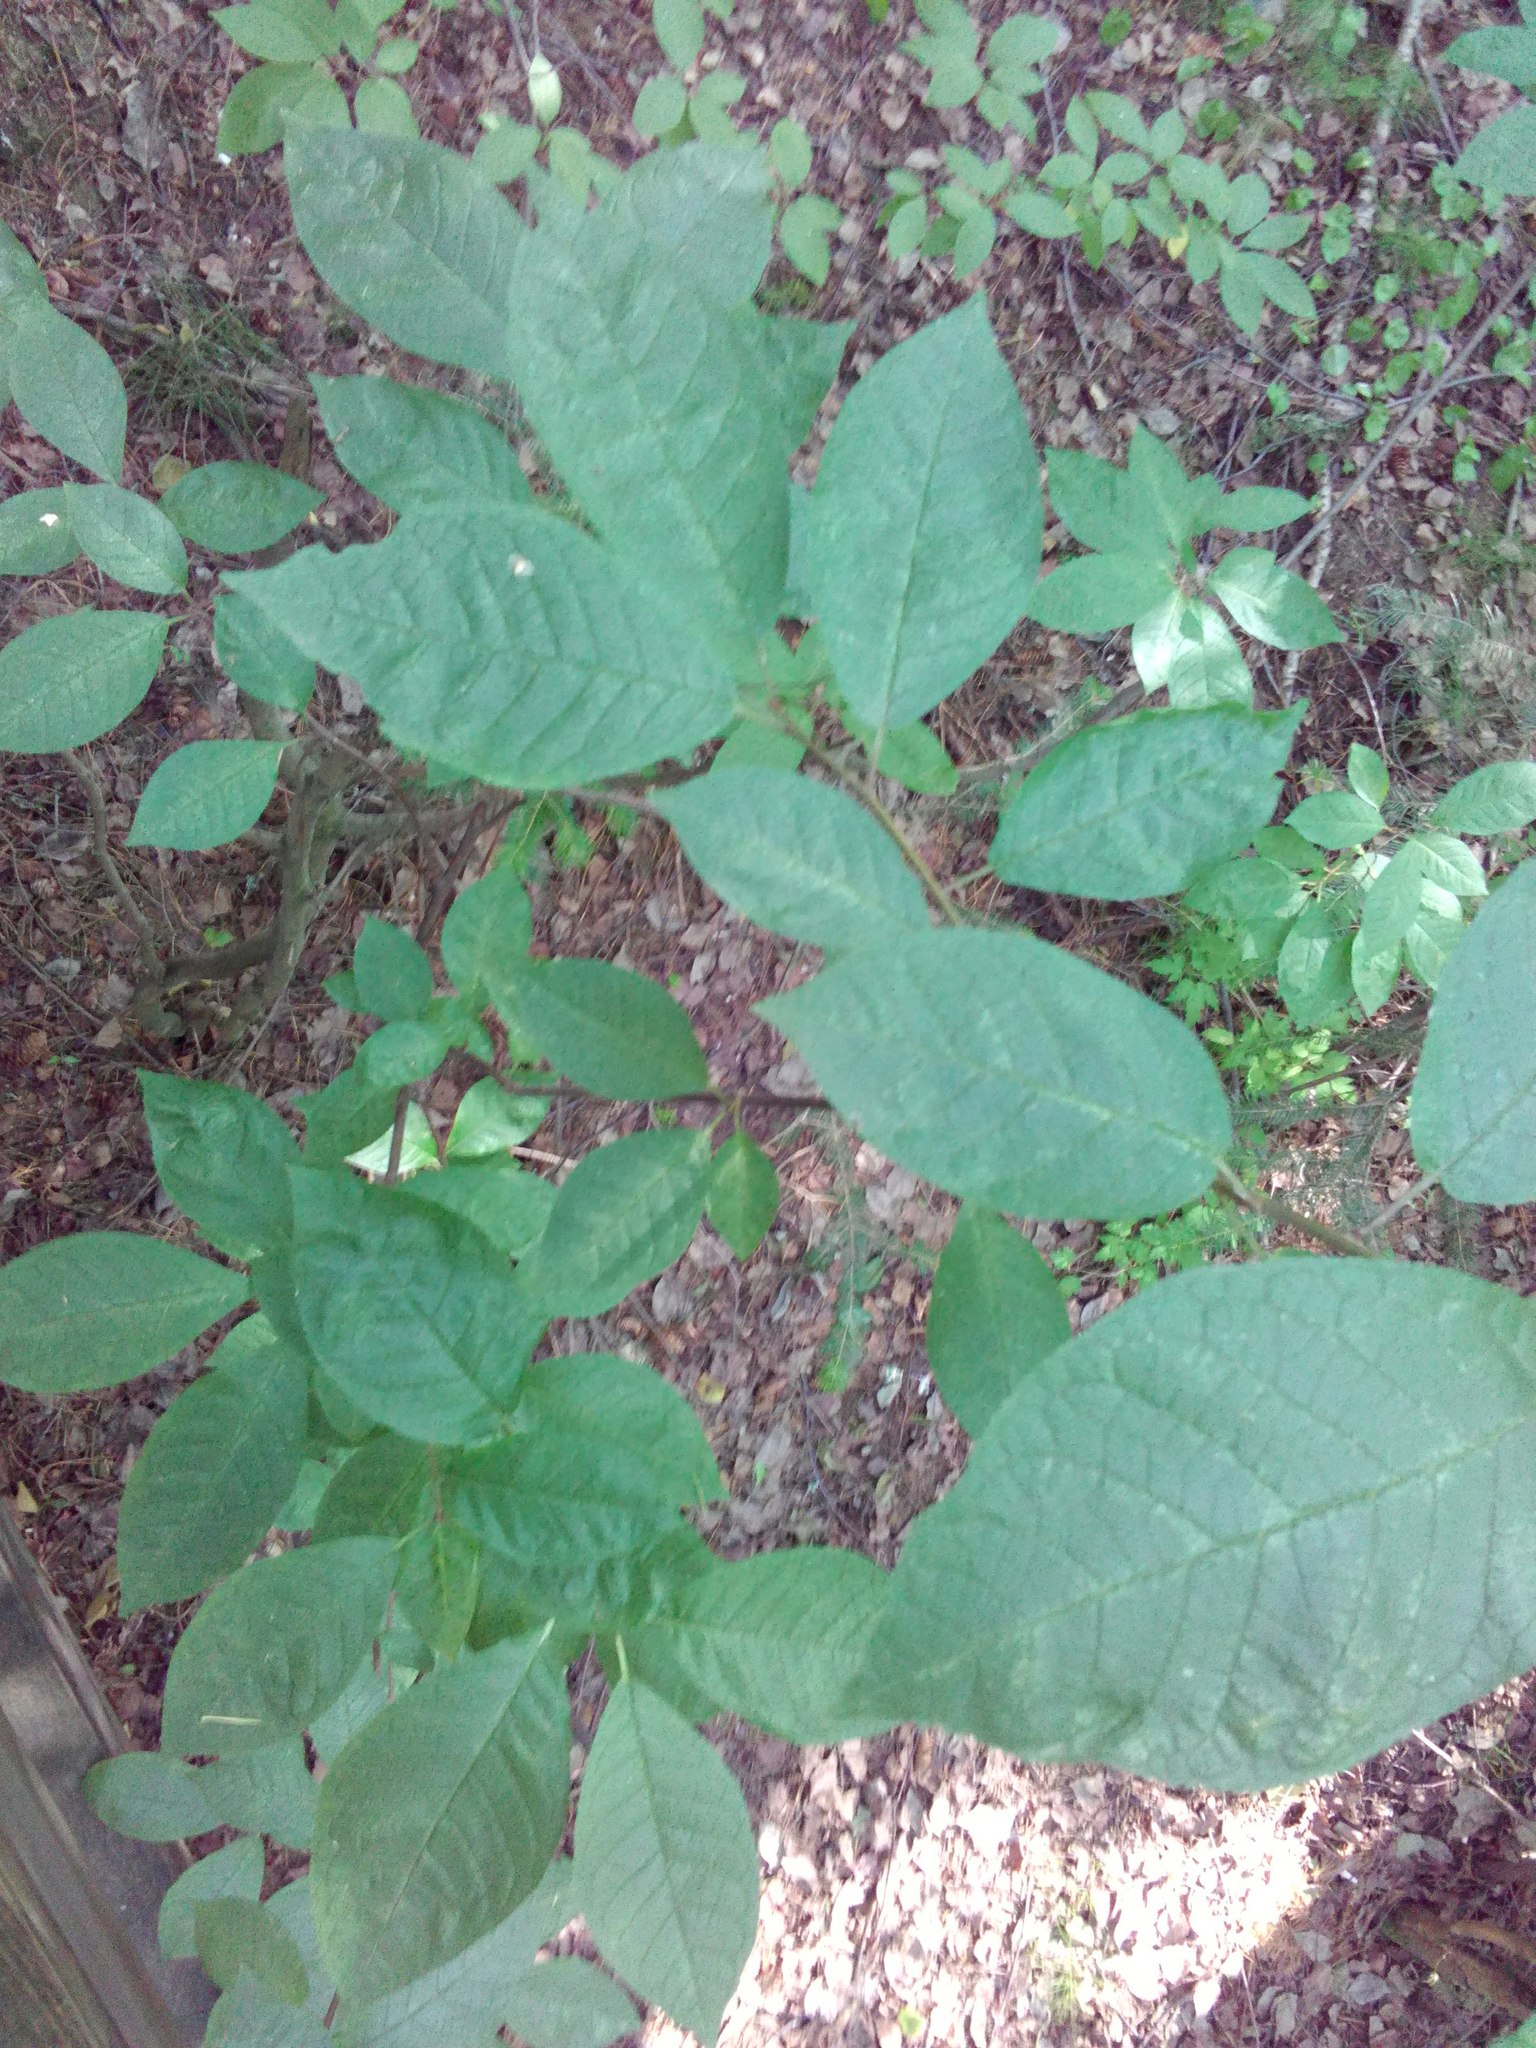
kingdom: Plantae
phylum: Tracheophyta
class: Magnoliopsida
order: Rosales
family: Rosaceae
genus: Prunus
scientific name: Prunus padus
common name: Bird cherry
